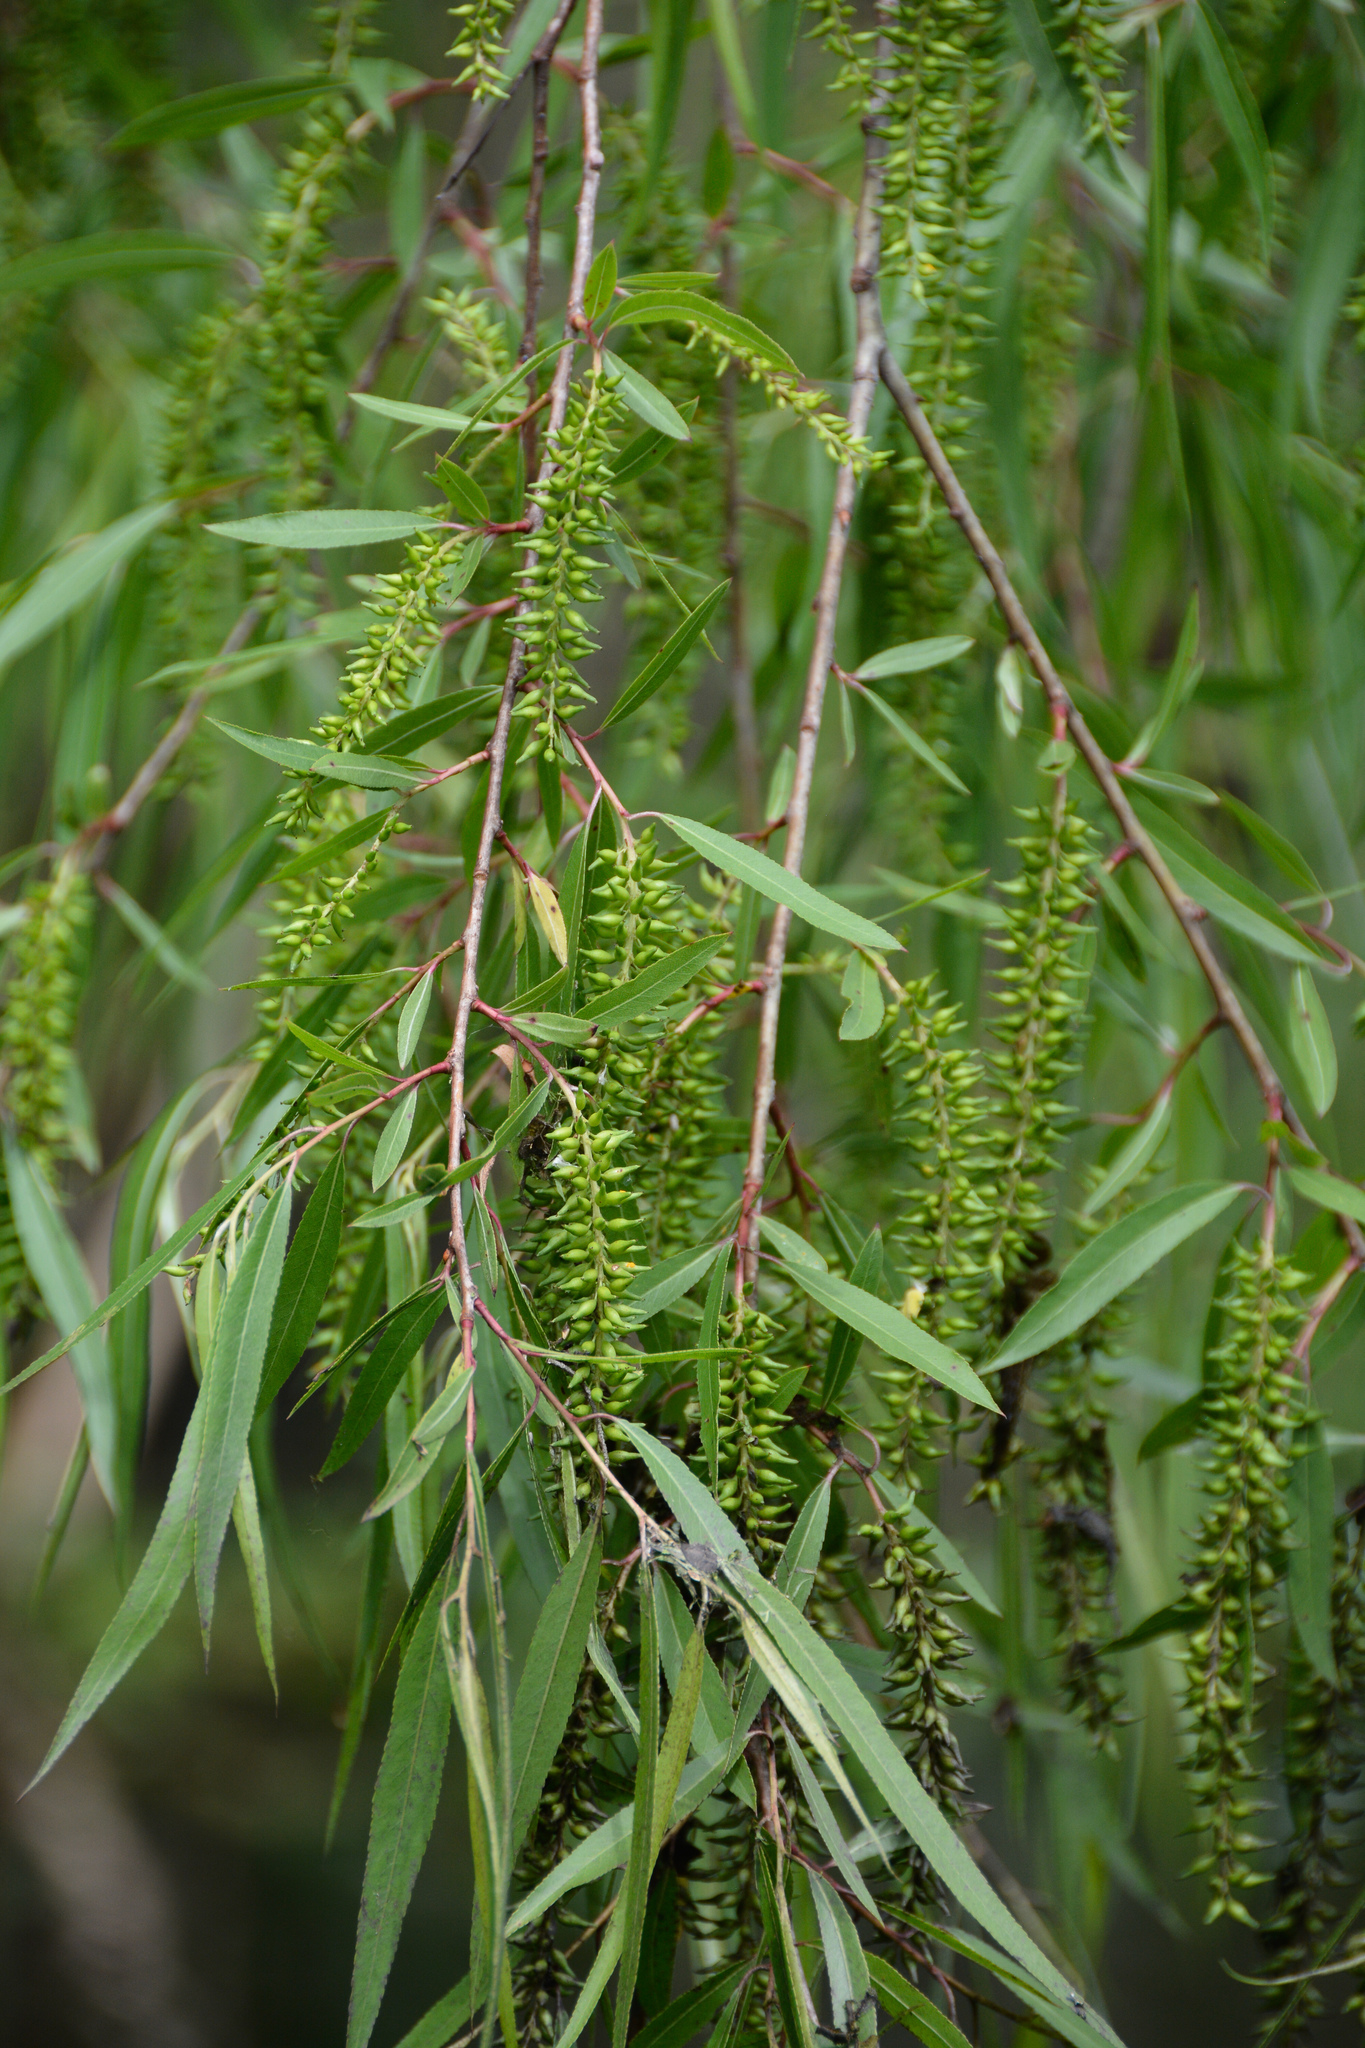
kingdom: Plantae
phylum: Tracheophyta
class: Magnoliopsida
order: Malpighiales
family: Salicaceae
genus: Salix
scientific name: Salix nigra
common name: Black willow
